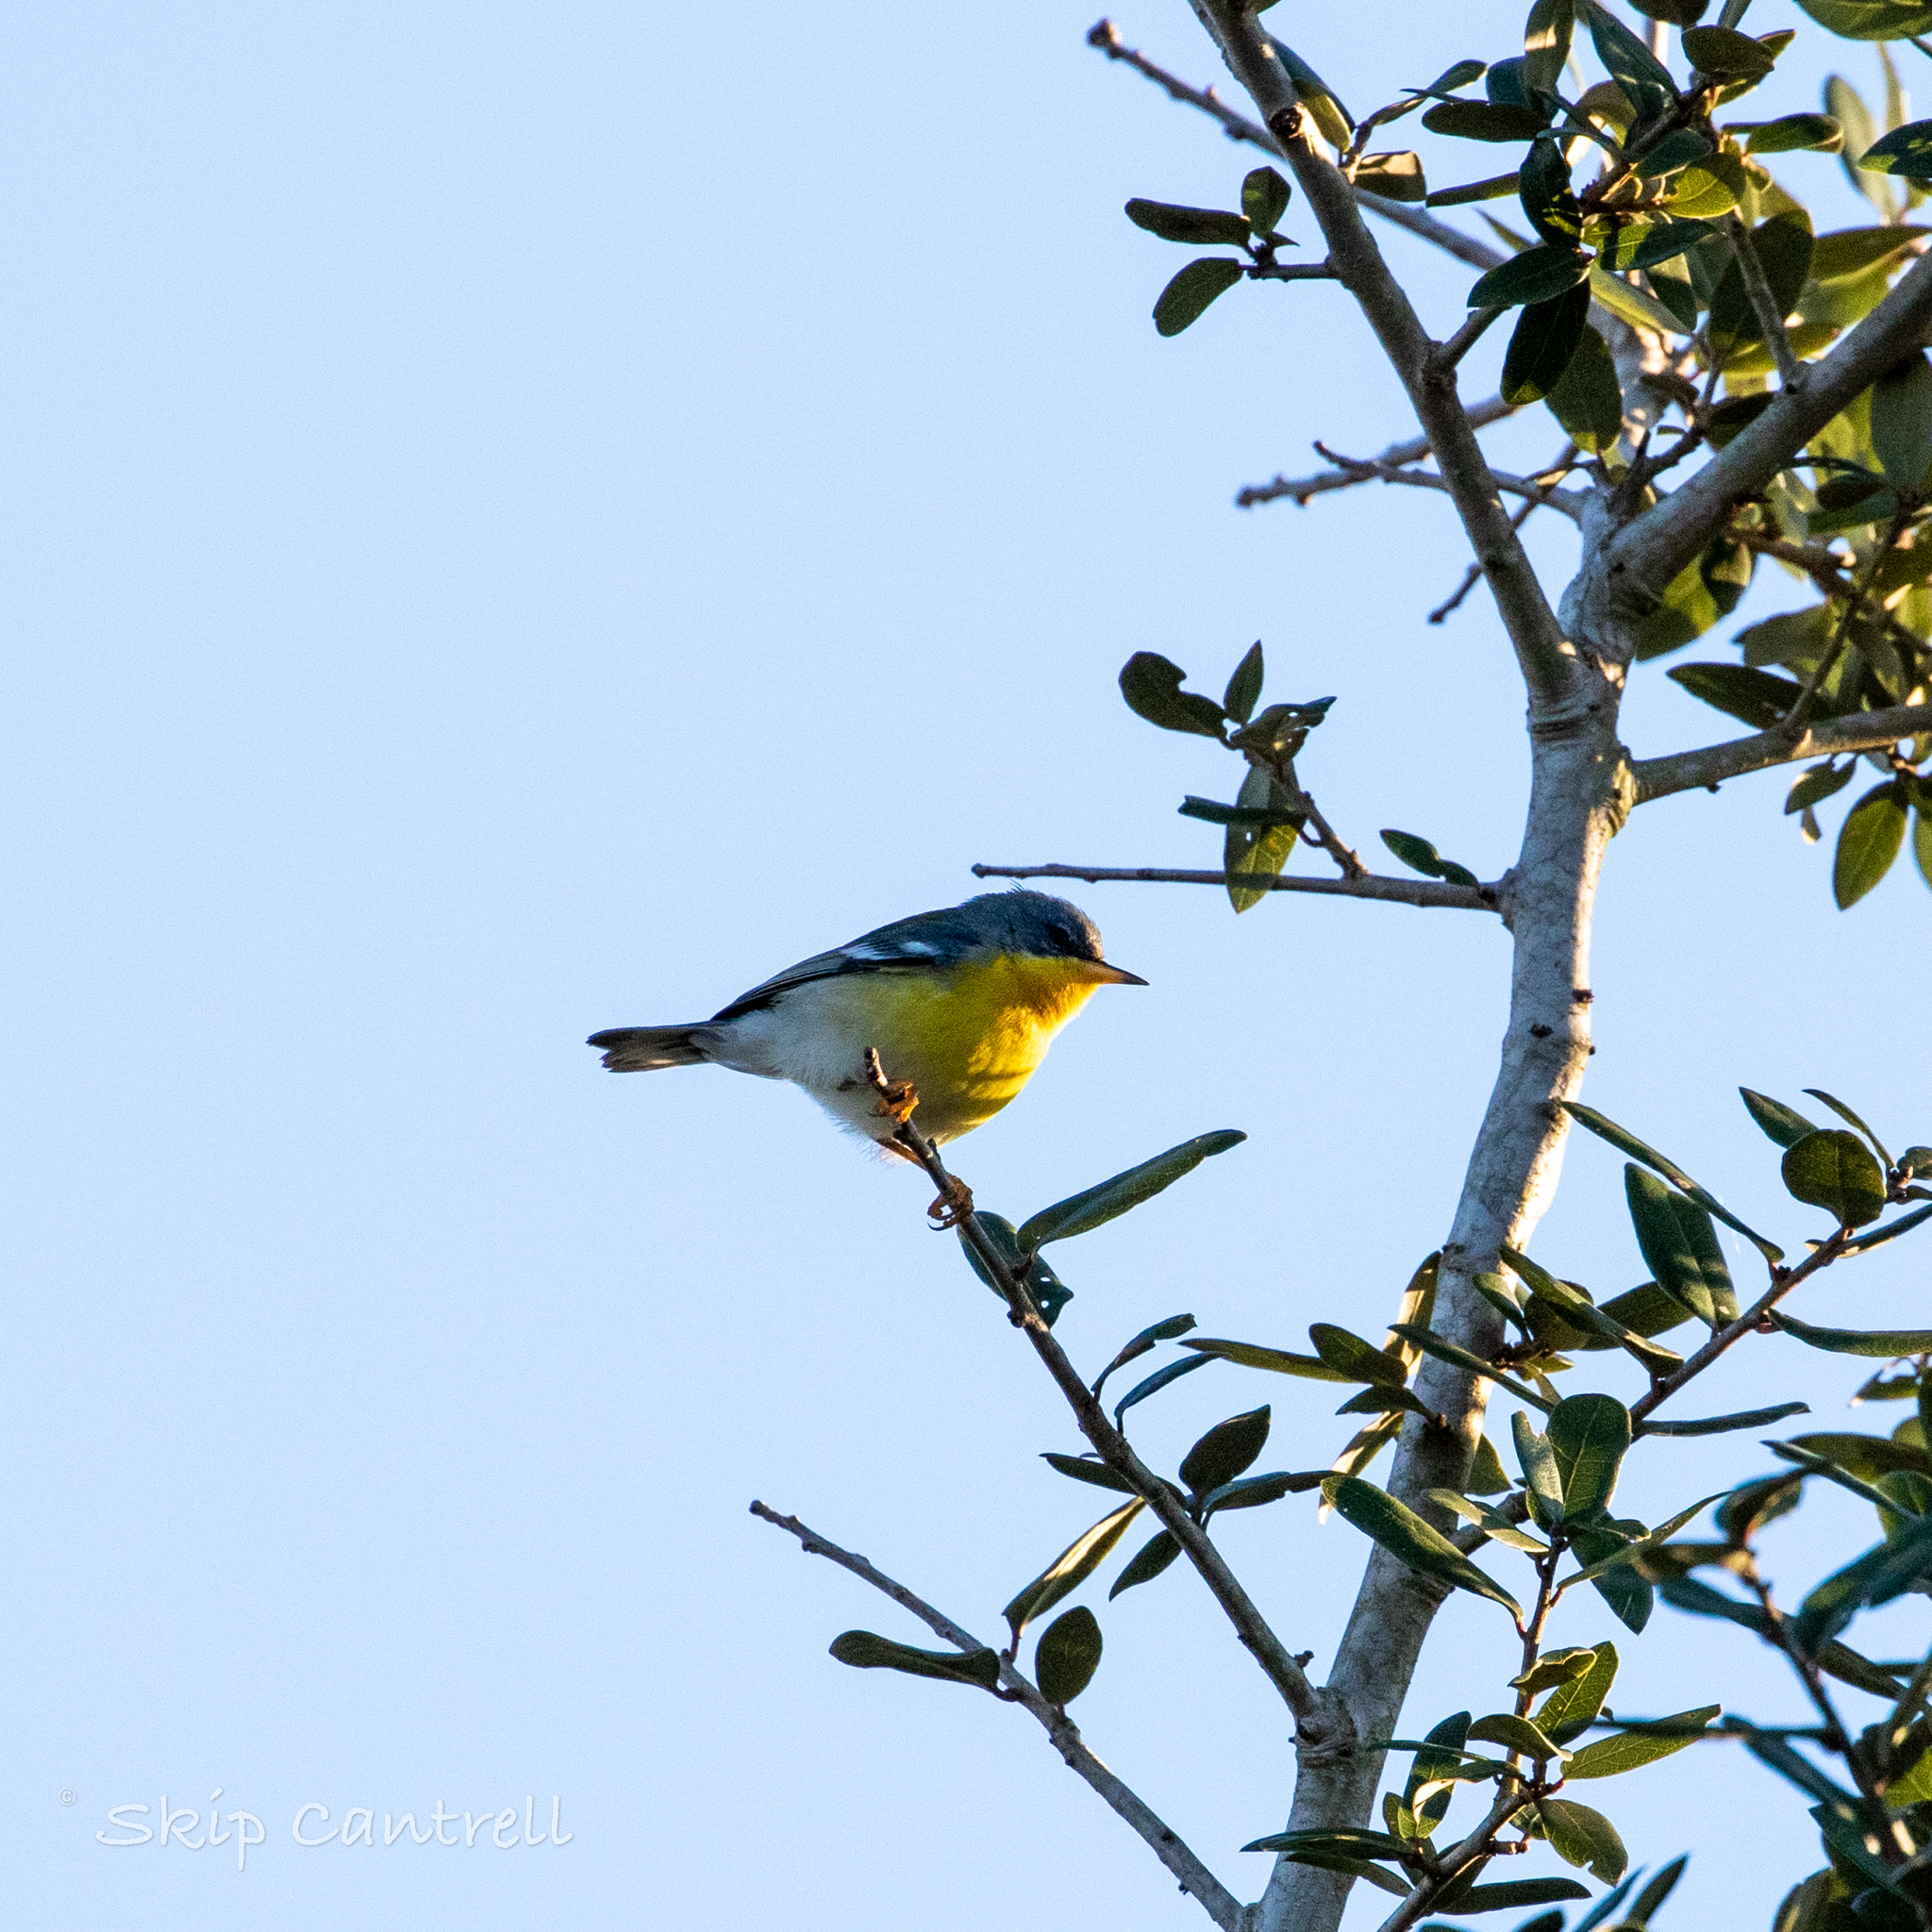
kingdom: Animalia
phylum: Chordata
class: Aves
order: Passeriformes
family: Parulidae
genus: Setophaga
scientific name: Setophaga pitiayumi
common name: Tropical parula
